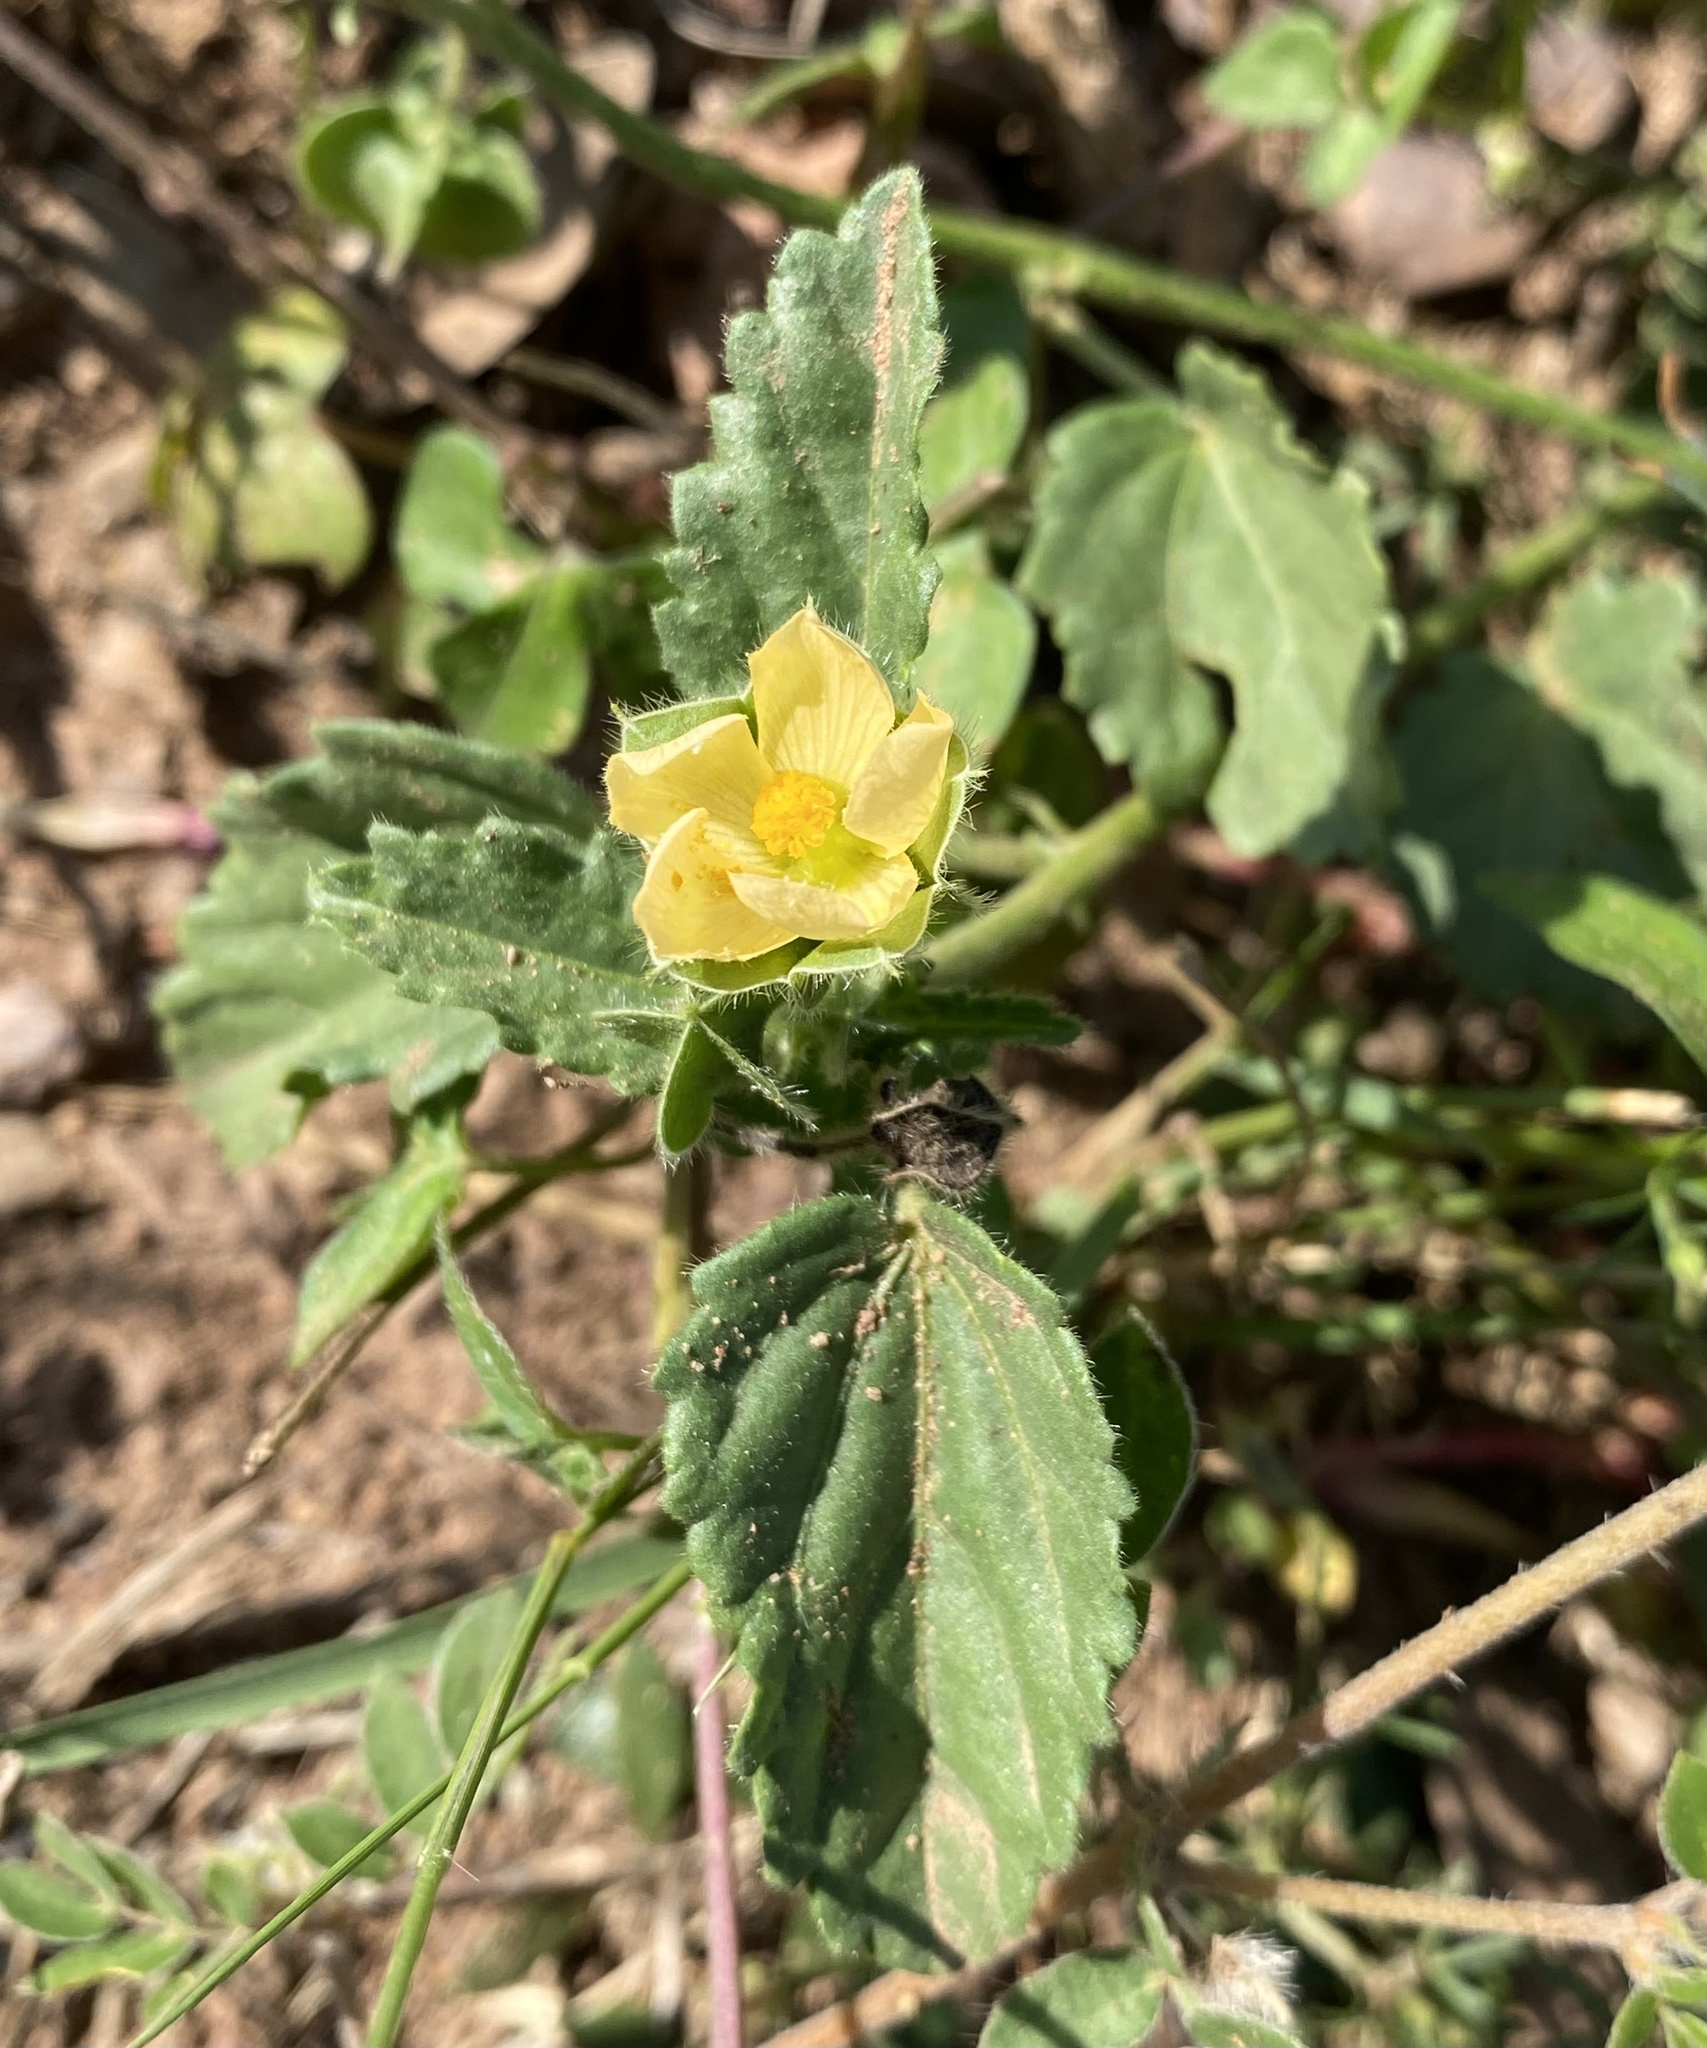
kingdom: Plantae
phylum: Tracheophyta
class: Magnoliopsida
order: Malvales
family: Malvaceae
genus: Rhynchosida
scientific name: Rhynchosida physocalyx
